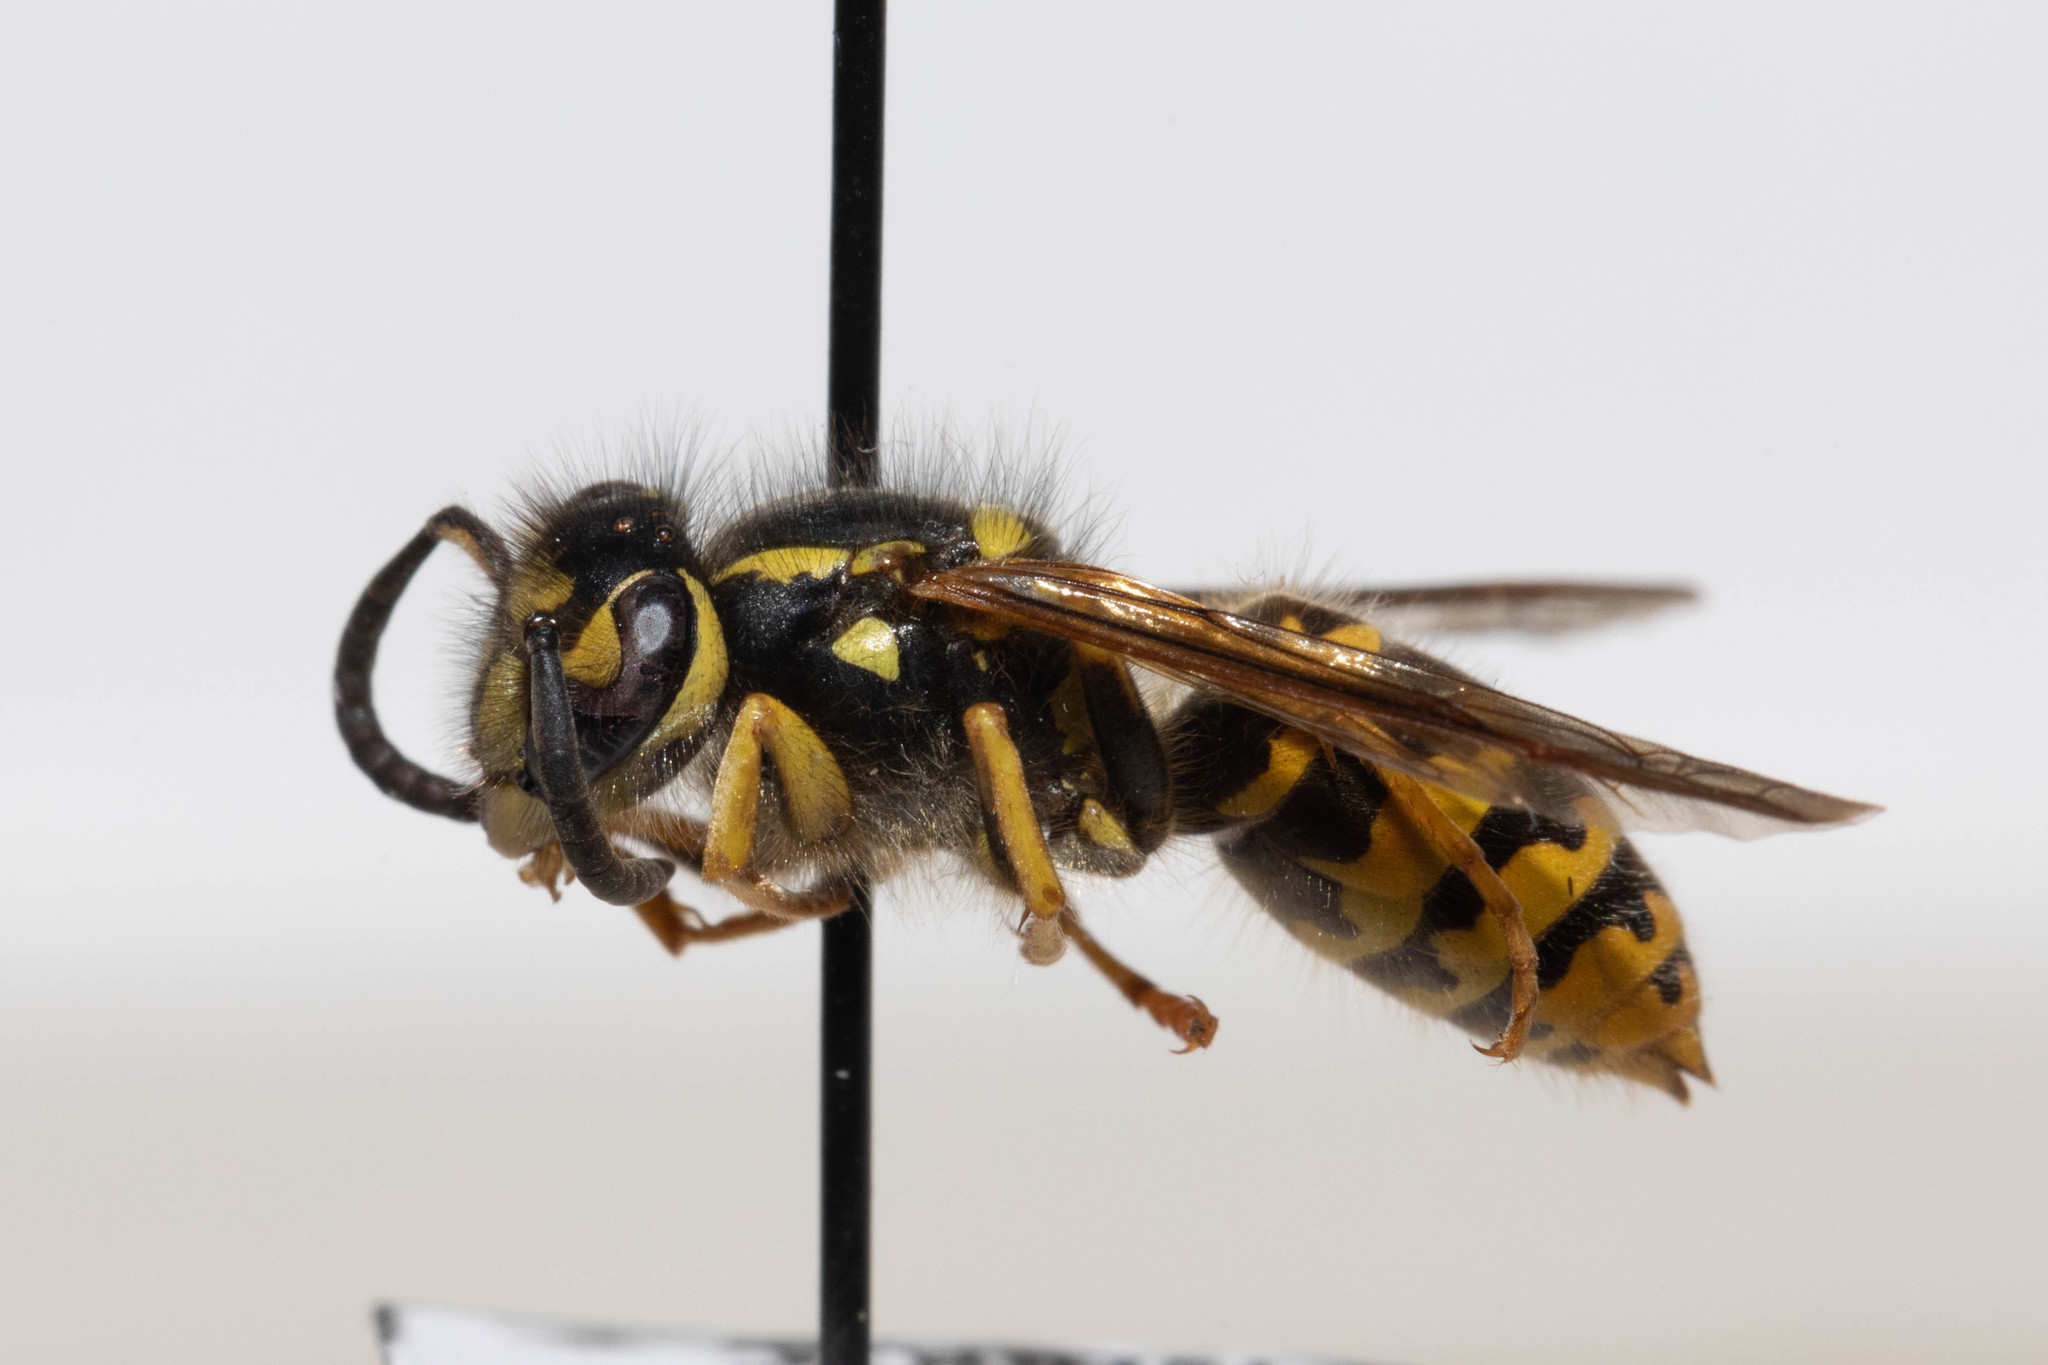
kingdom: Animalia
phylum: Arthropoda
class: Insecta
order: Hymenoptera
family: Vespidae
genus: Vespula
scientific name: Vespula pensylvanica
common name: Western yellowjacket
